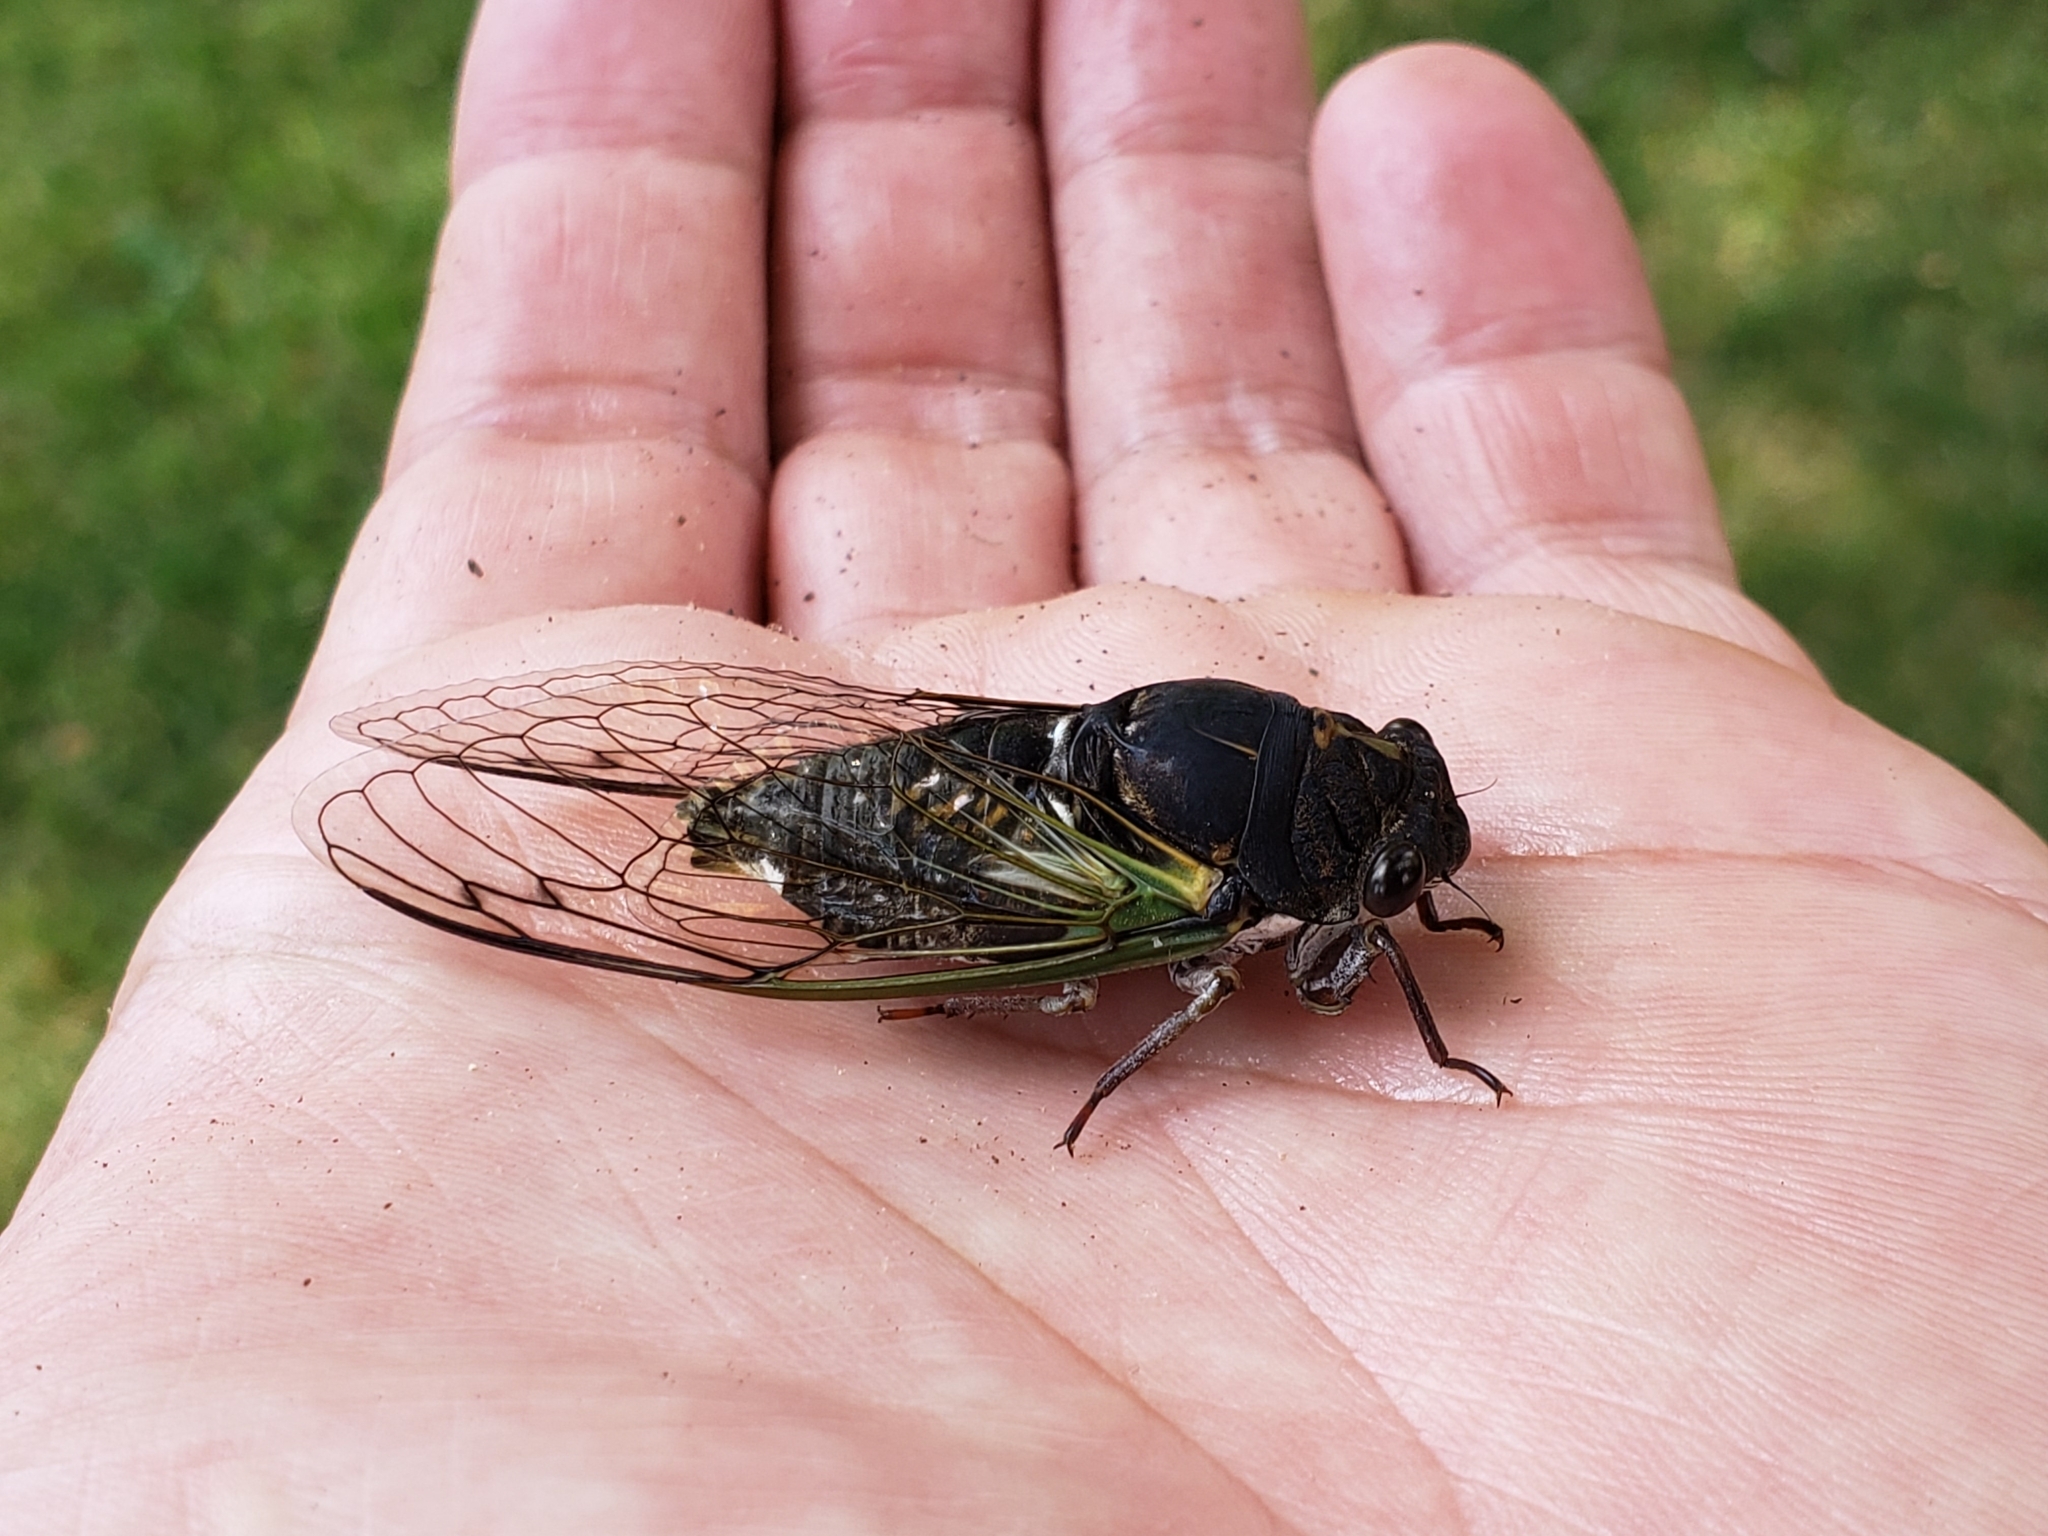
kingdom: Animalia
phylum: Arthropoda
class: Insecta
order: Hemiptera
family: Cicadidae
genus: Neotibicen
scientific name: Neotibicen lyricen
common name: Lyric cicada
